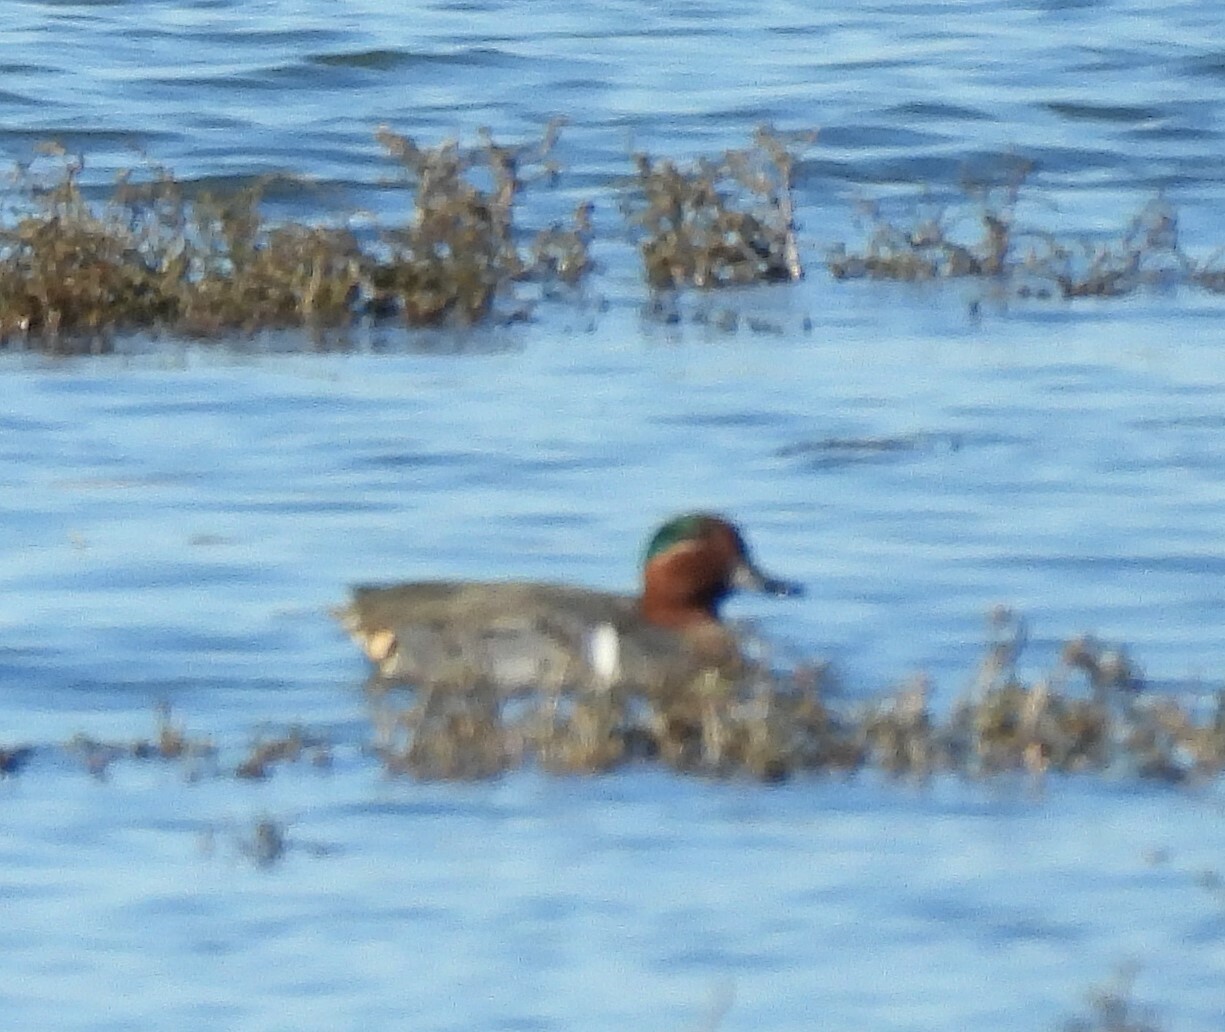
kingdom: Animalia
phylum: Chordata
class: Aves
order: Anseriformes
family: Anatidae
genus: Anas
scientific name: Anas crecca
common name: Eurasian teal
